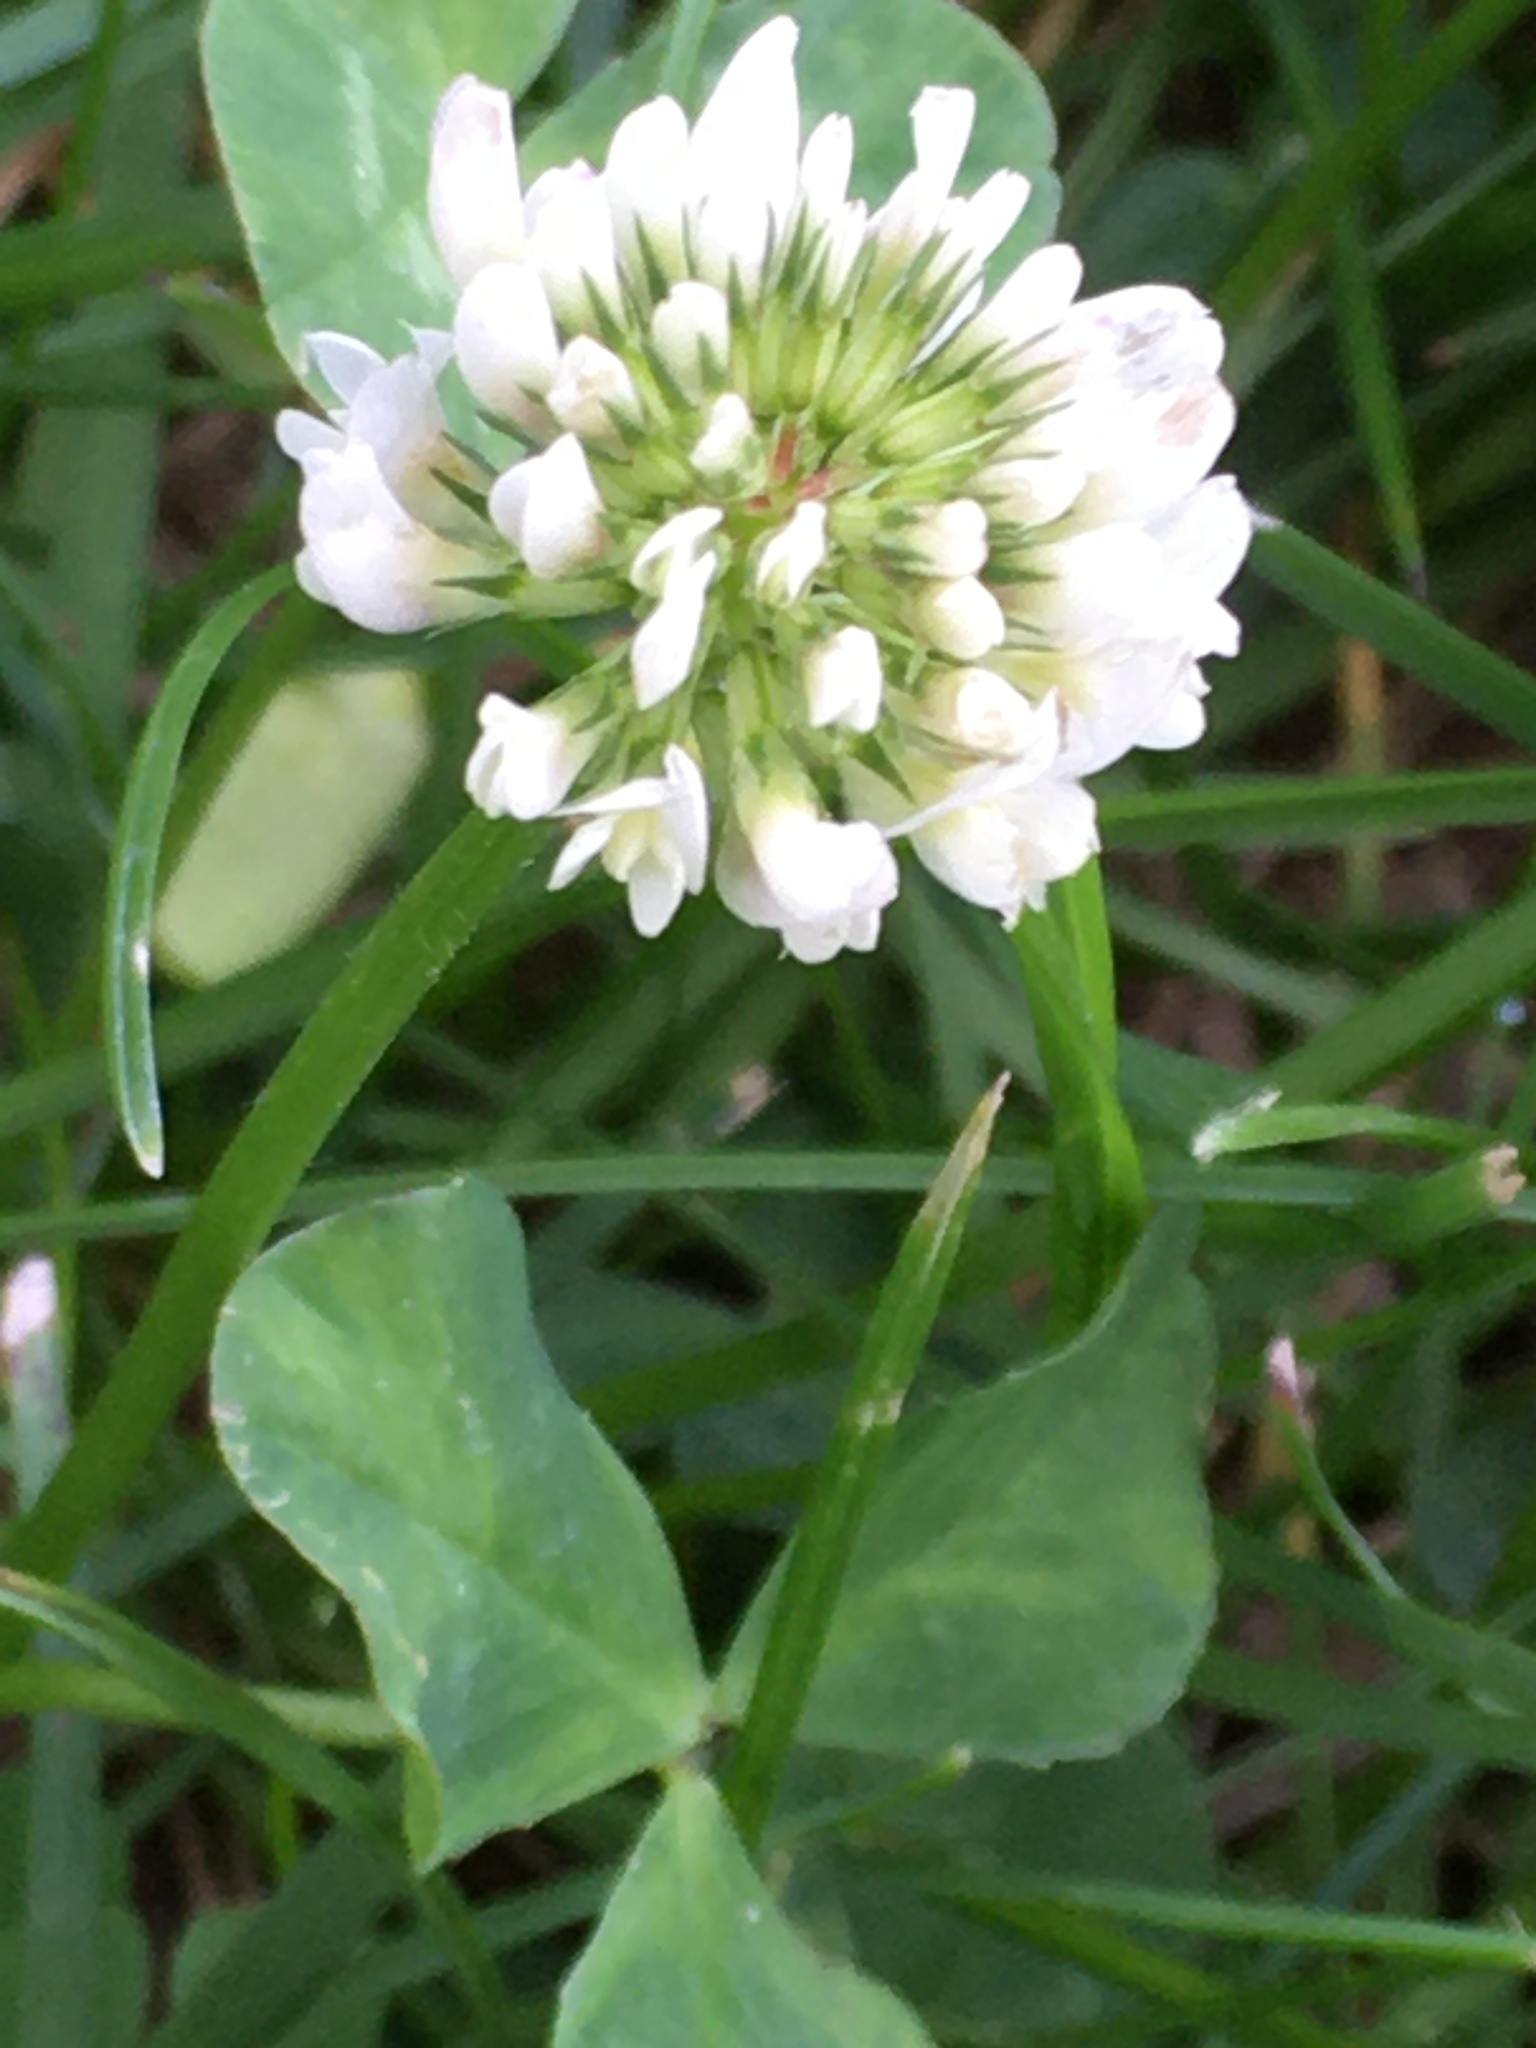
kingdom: Plantae
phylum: Tracheophyta
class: Magnoliopsida
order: Fabales
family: Fabaceae
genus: Trifolium
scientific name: Trifolium repens
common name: White clover
